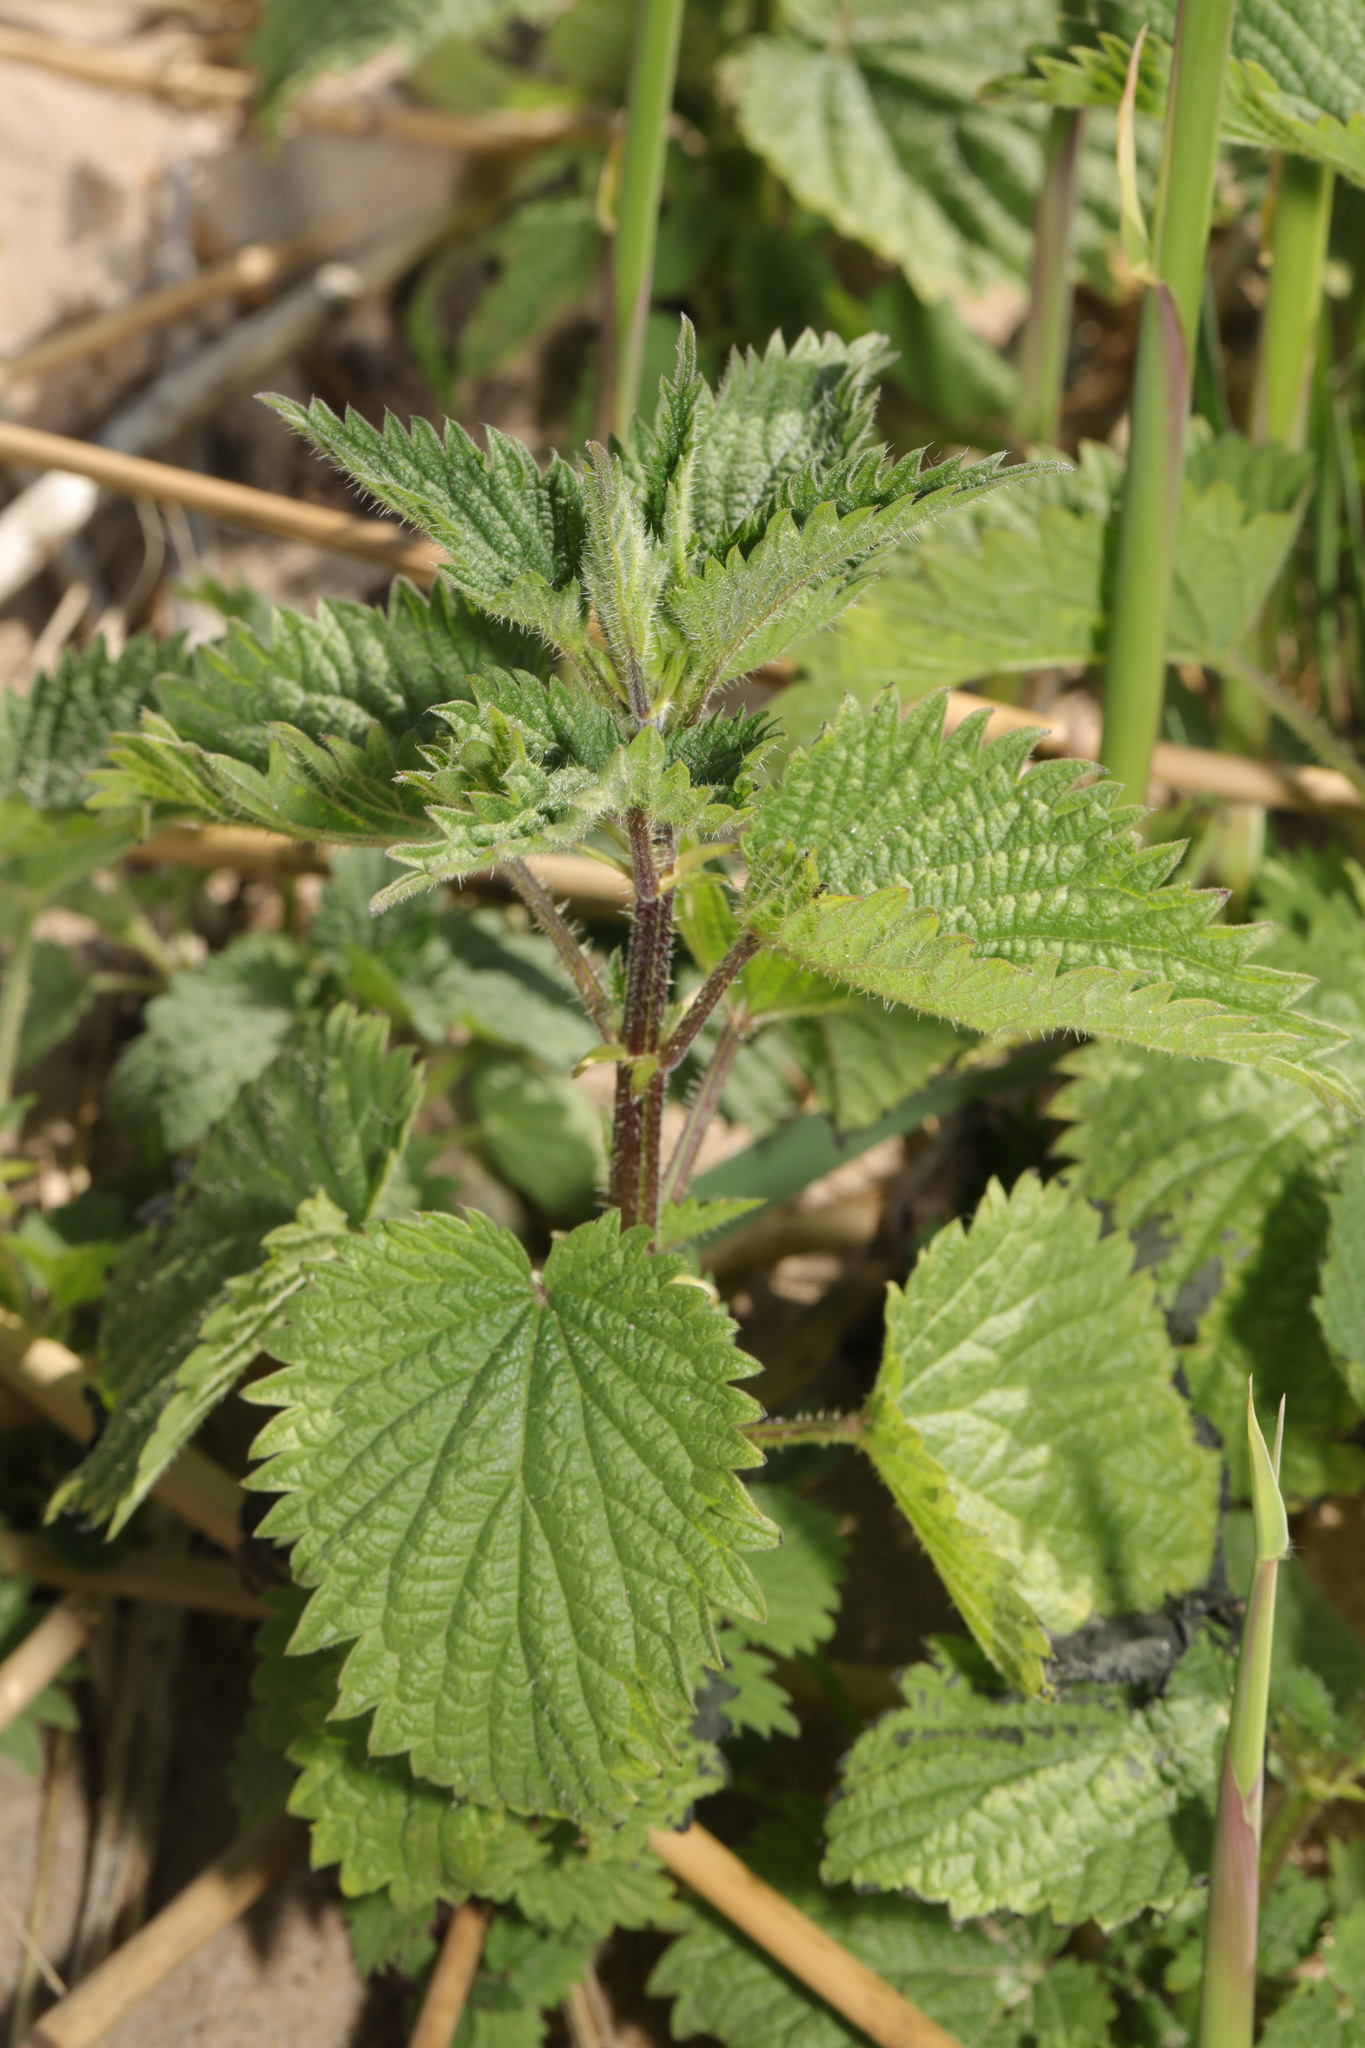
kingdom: Plantae
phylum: Tracheophyta
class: Magnoliopsida
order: Rosales
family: Urticaceae
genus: Urtica
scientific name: Urtica dioica
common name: Common nettle
